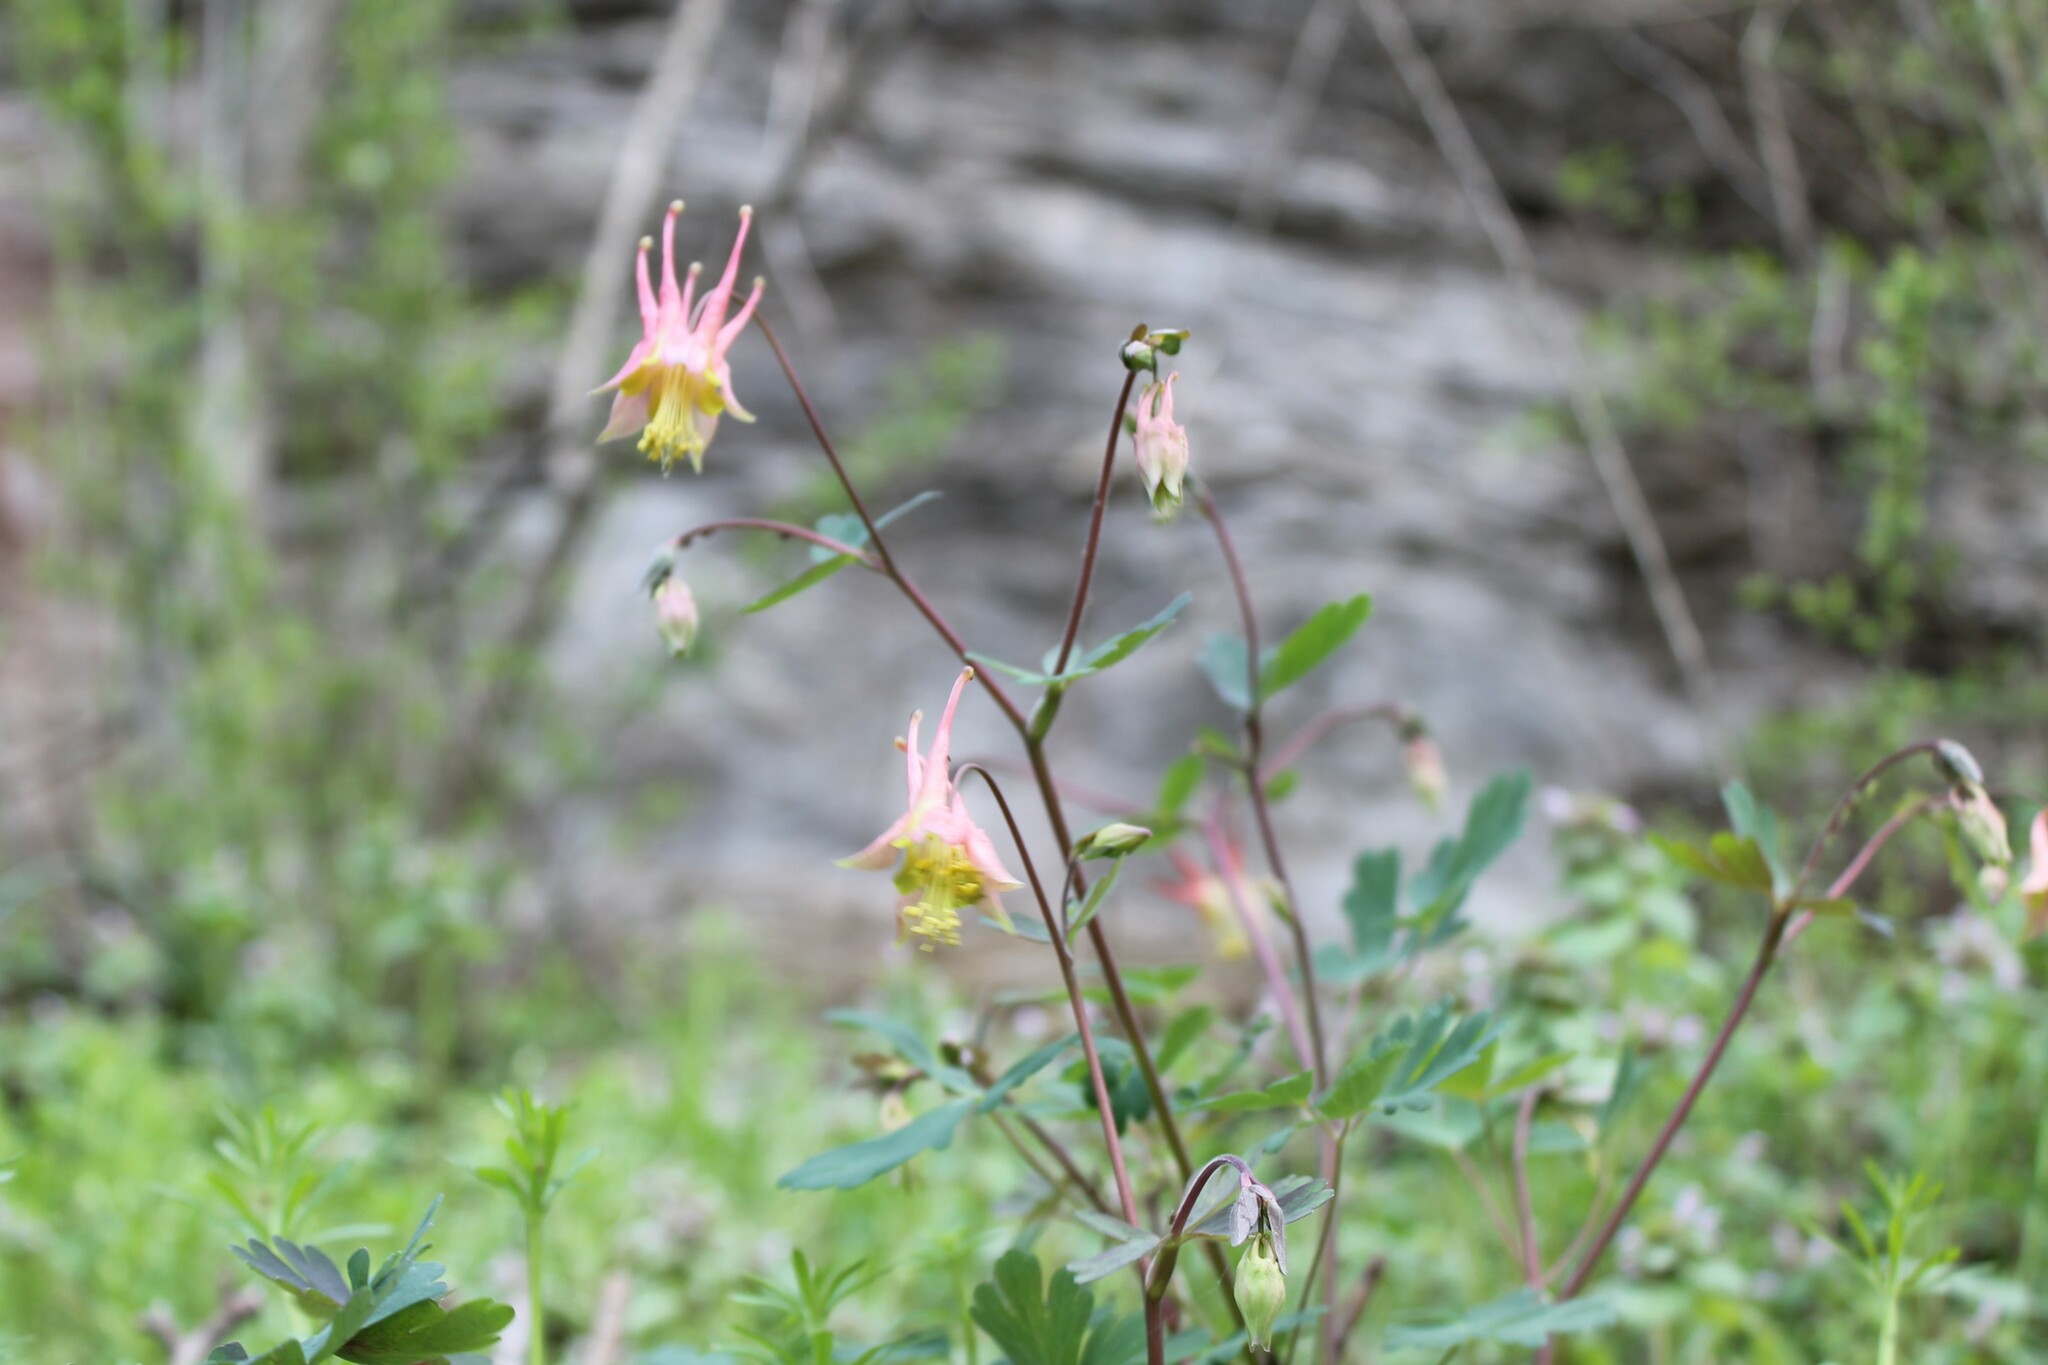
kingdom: Plantae
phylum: Tracheophyta
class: Magnoliopsida
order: Ranunculales
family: Ranunculaceae
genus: Aquilegia
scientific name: Aquilegia canadensis
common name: American columbine
